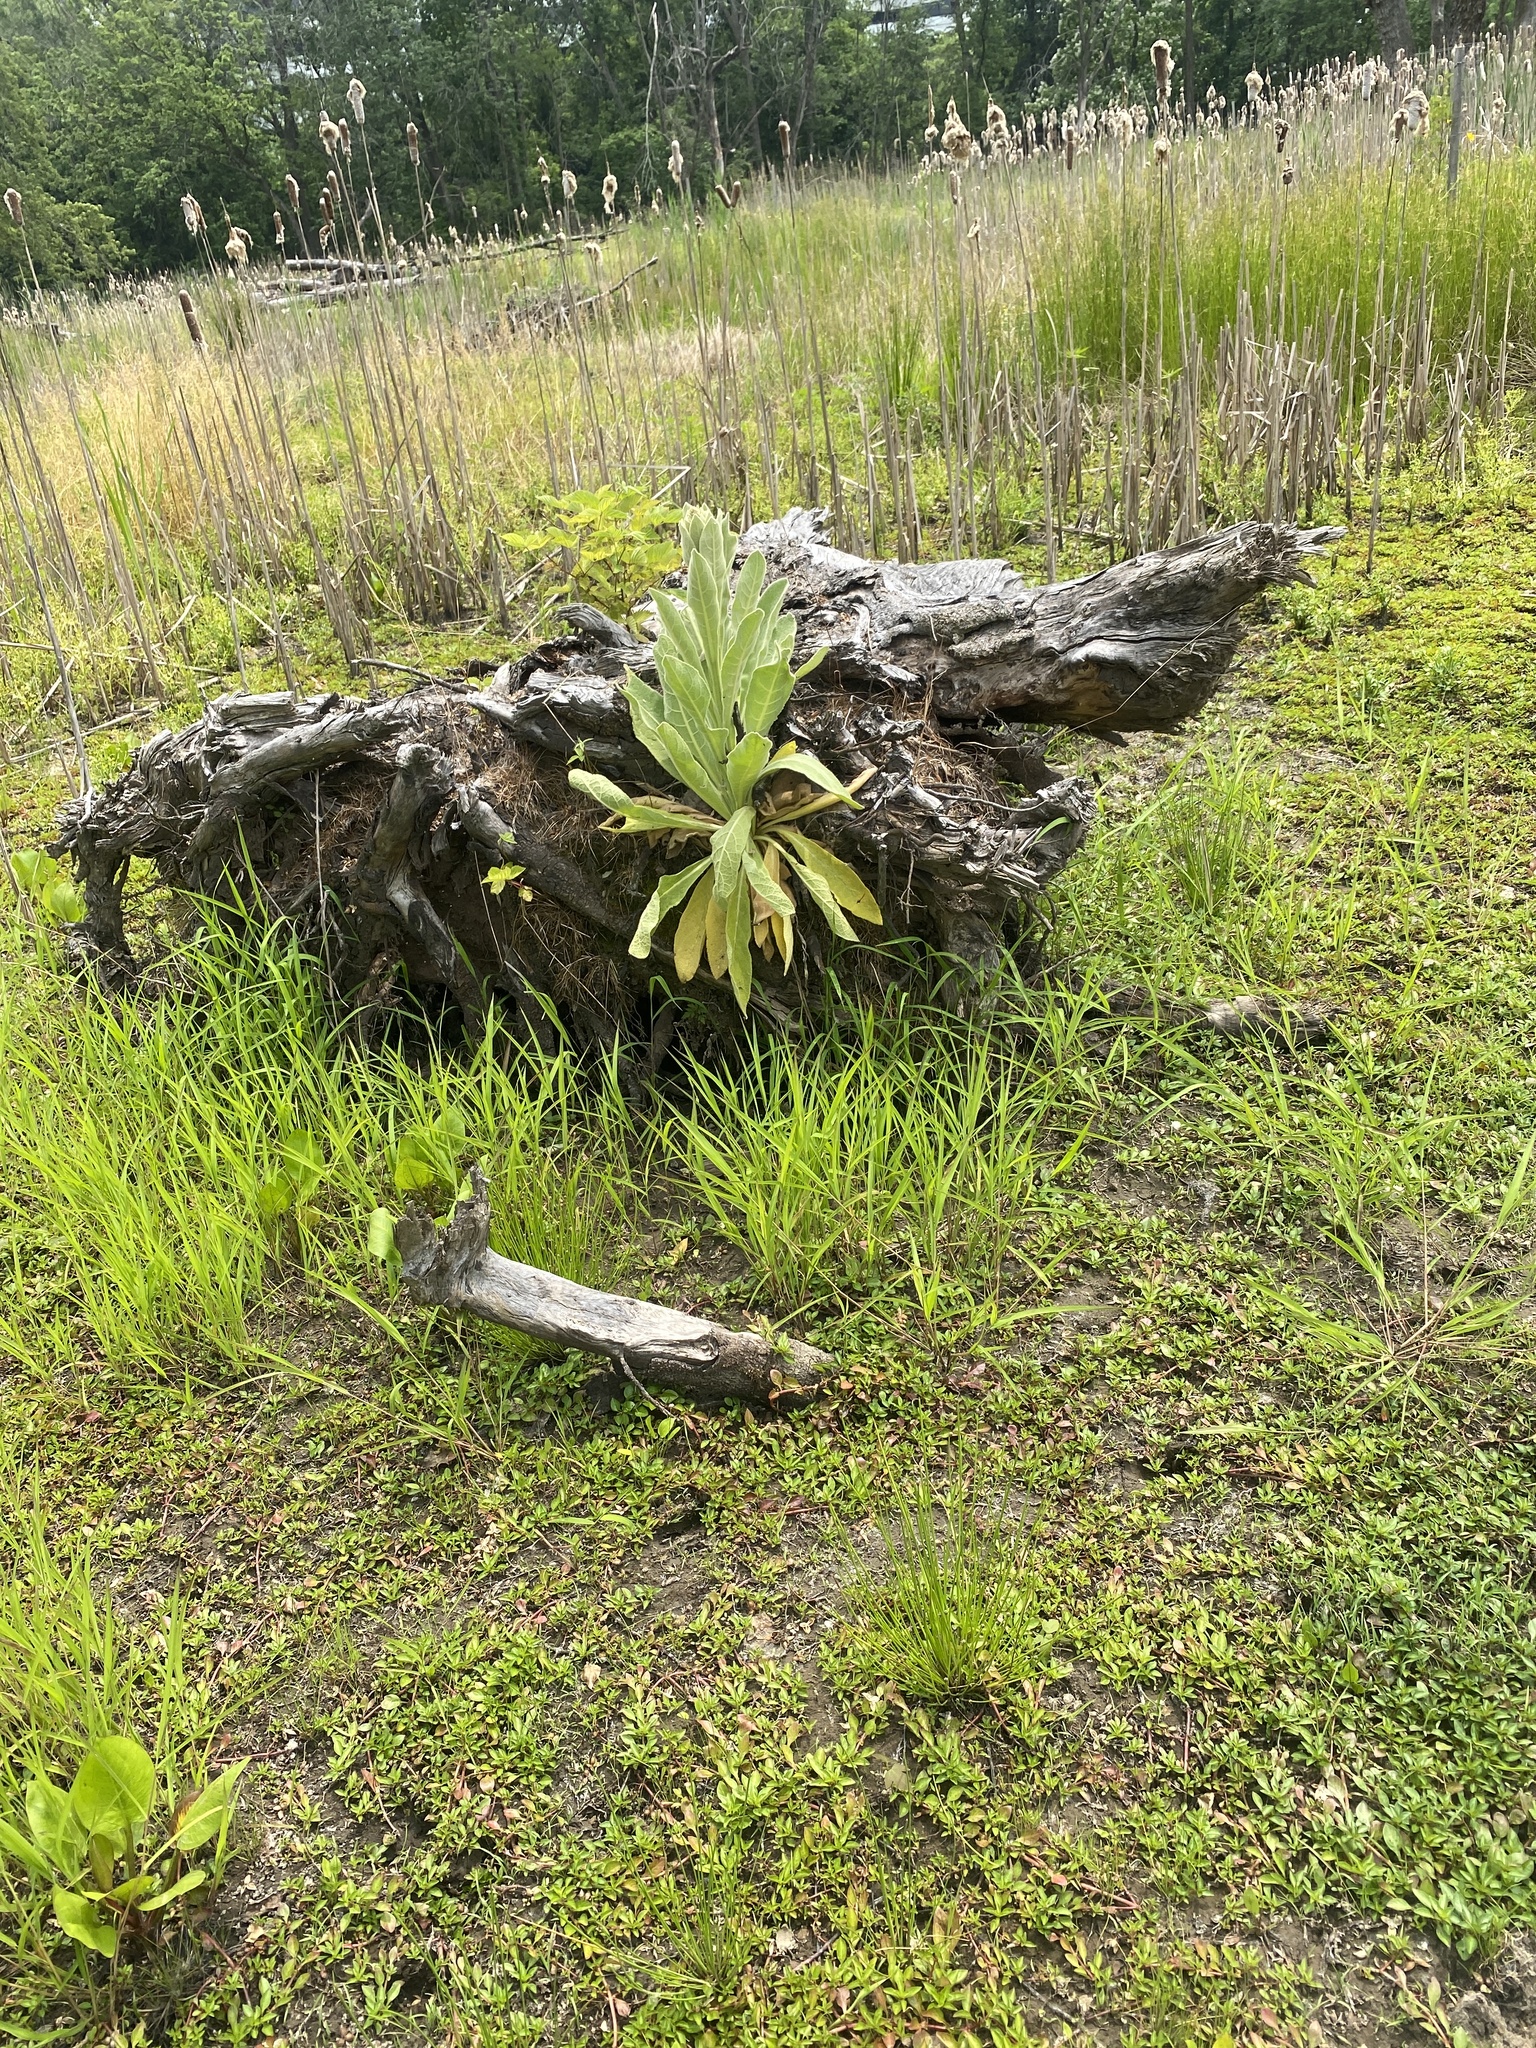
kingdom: Plantae
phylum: Tracheophyta
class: Magnoliopsida
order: Lamiales
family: Scrophulariaceae
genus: Verbascum
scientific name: Verbascum thapsus
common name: Common mullein
